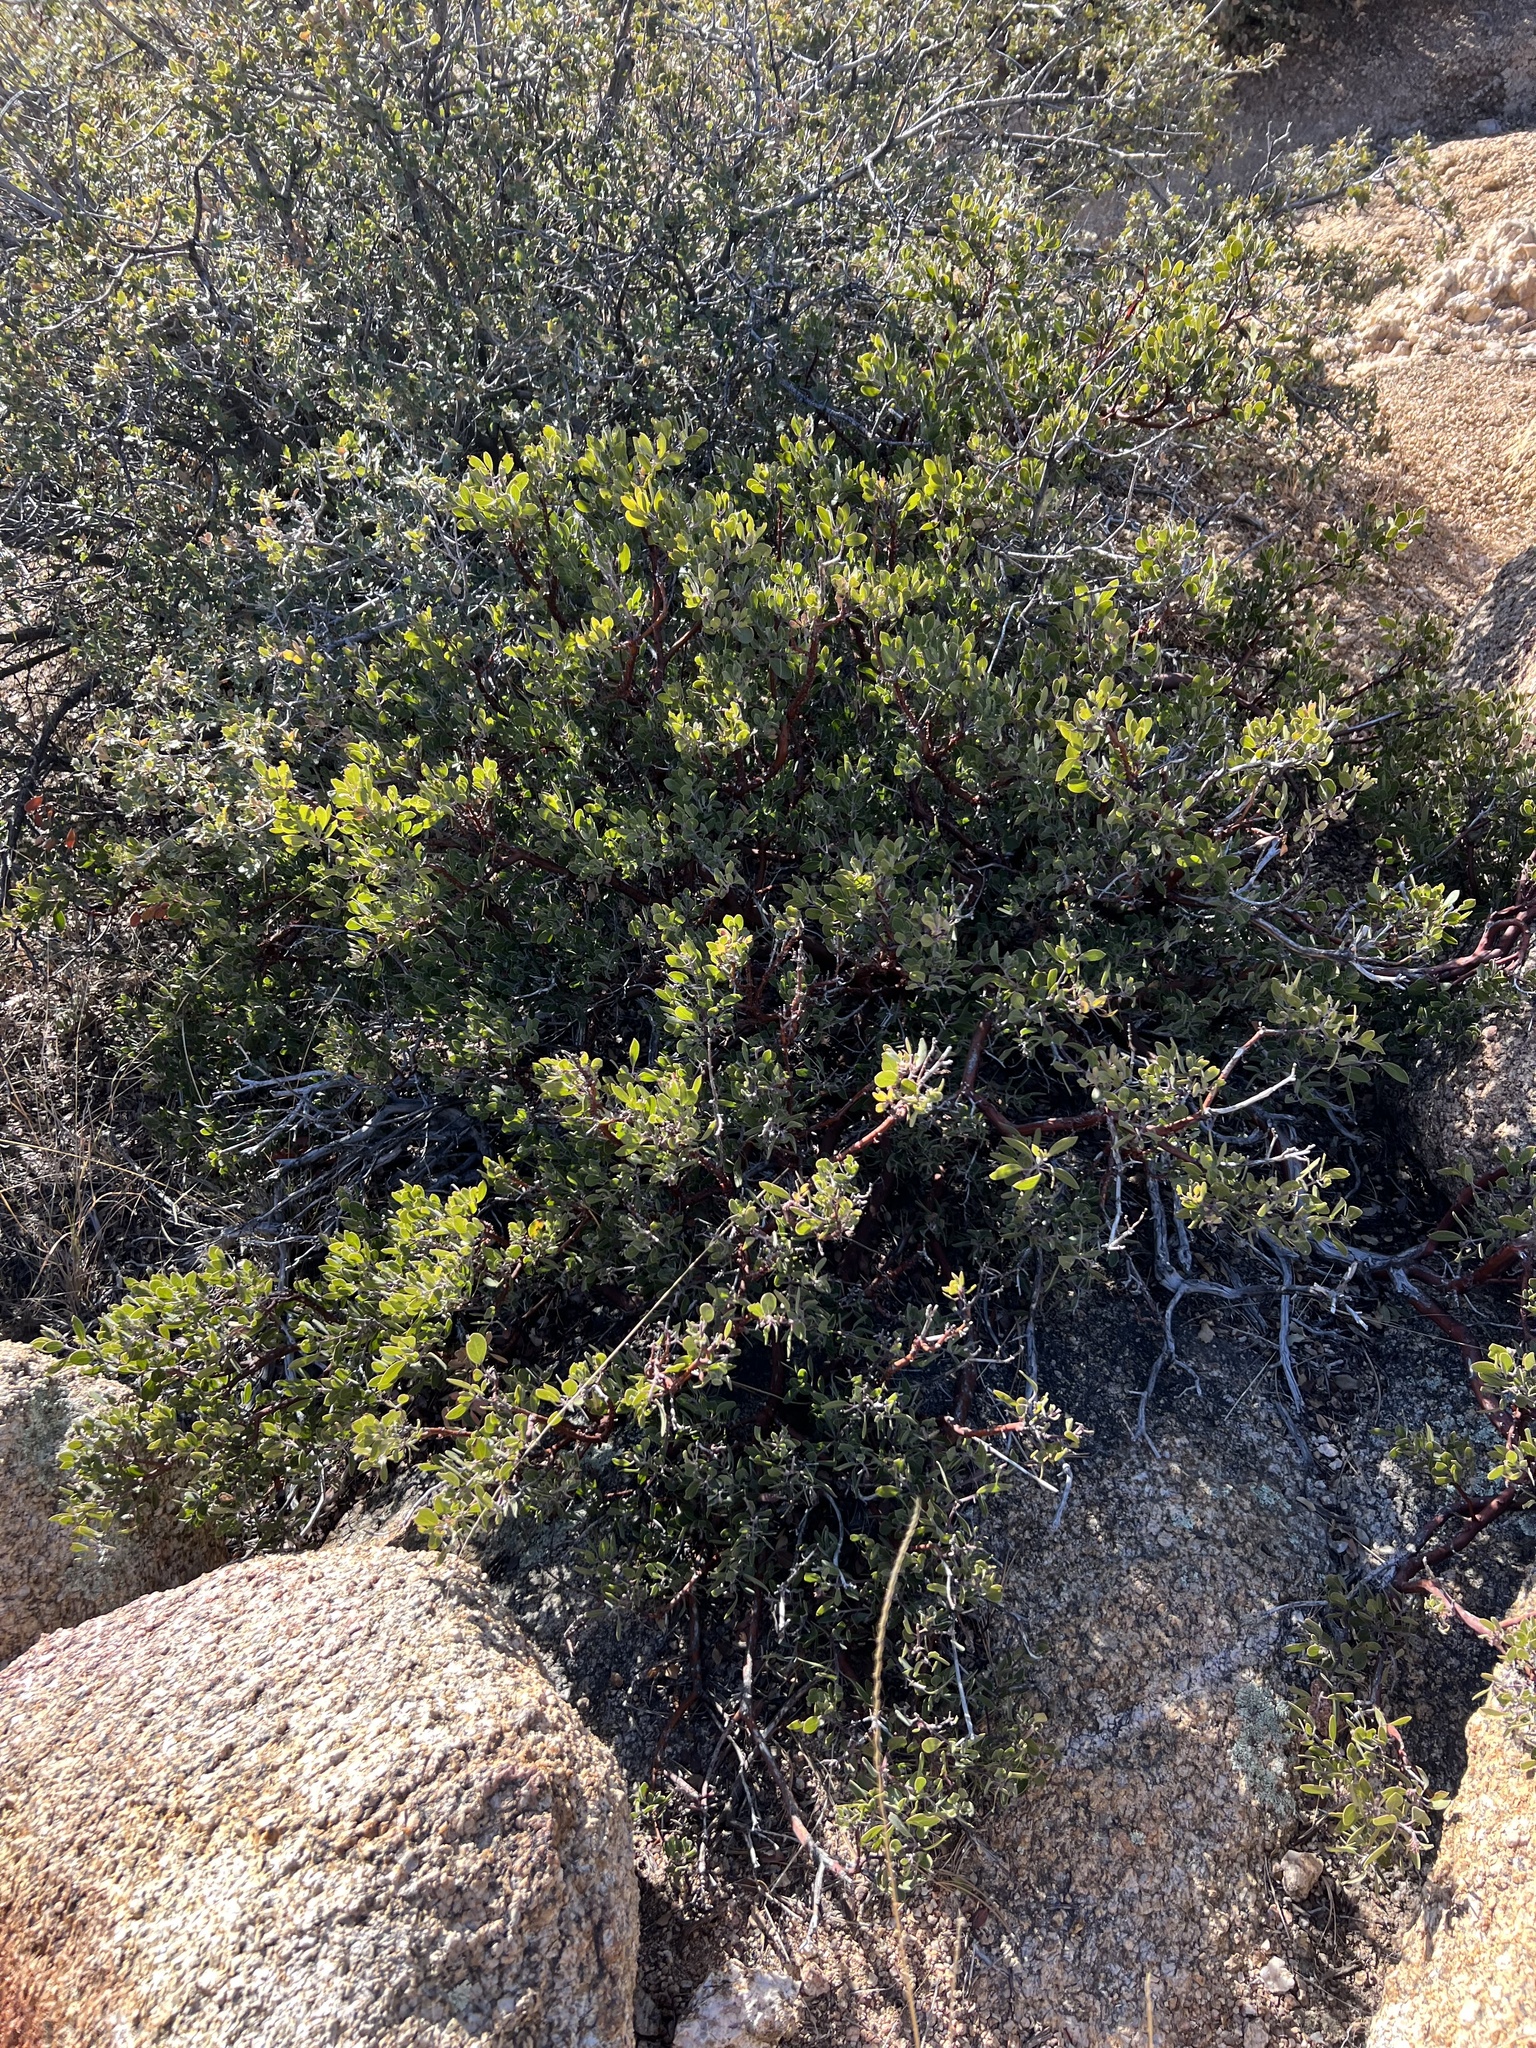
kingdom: Plantae
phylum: Tracheophyta
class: Magnoliopsida
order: Ericales
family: Ericaceae
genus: Arctostaphylos
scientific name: Arctostaphylos pungens
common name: Mexican manzanita
